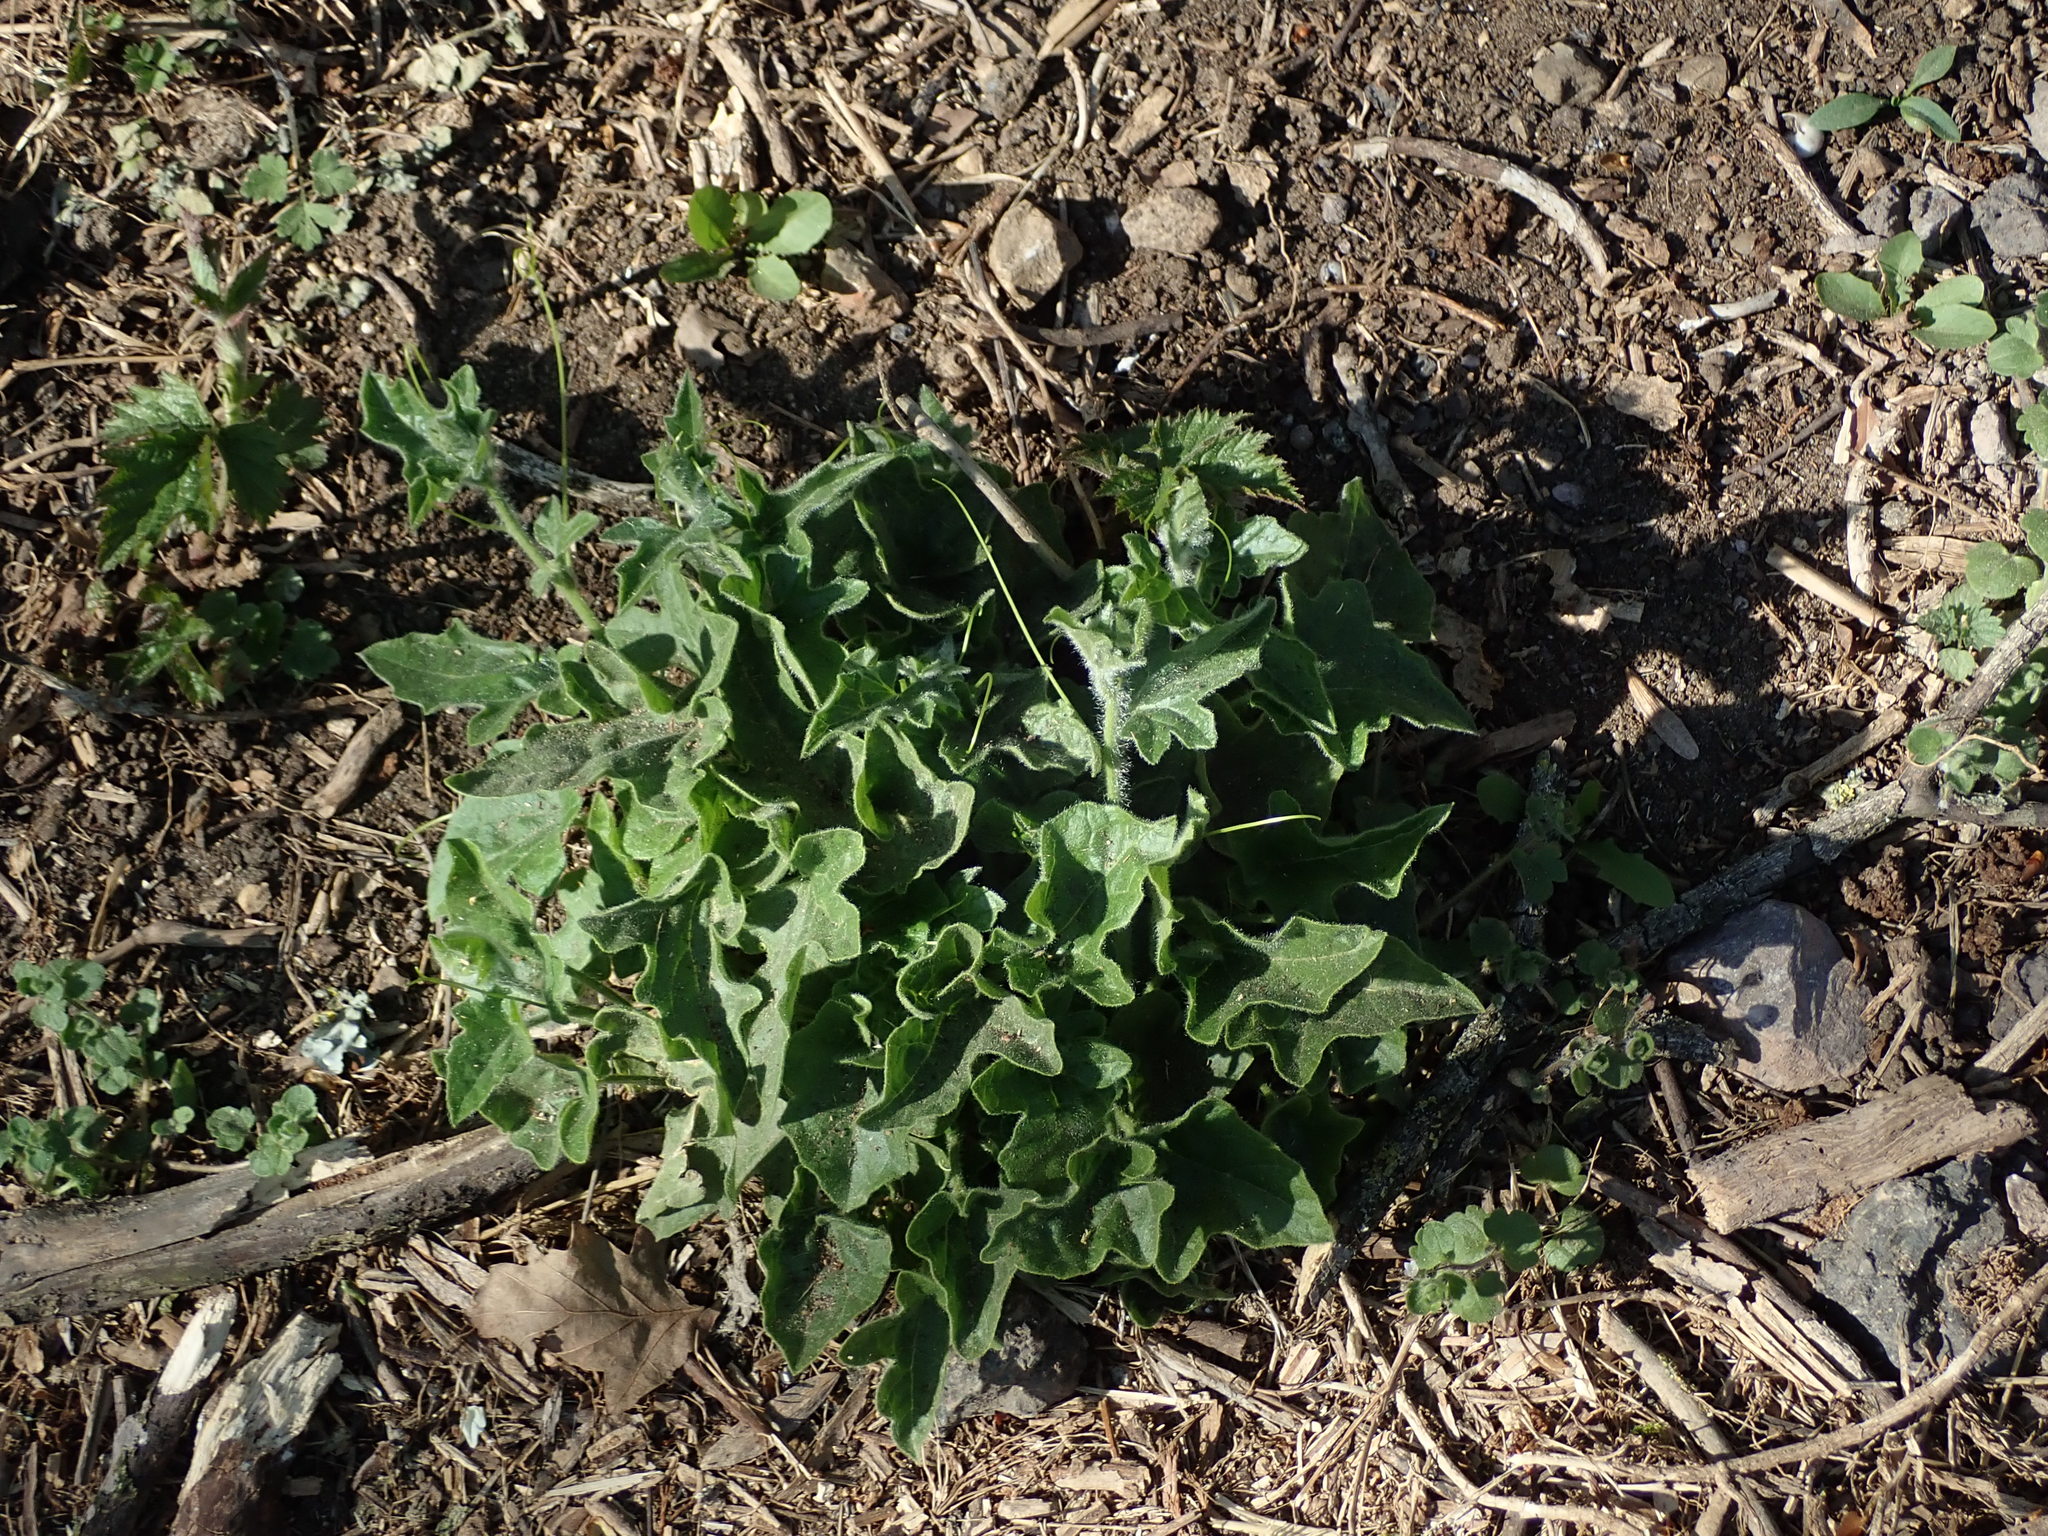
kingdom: Plantae
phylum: Tracheophyta
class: Magnoliopsida
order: Cucurbitales
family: Cucurbitaceae
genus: Bryonia
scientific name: Bryonia cretica
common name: Cretan bryony
